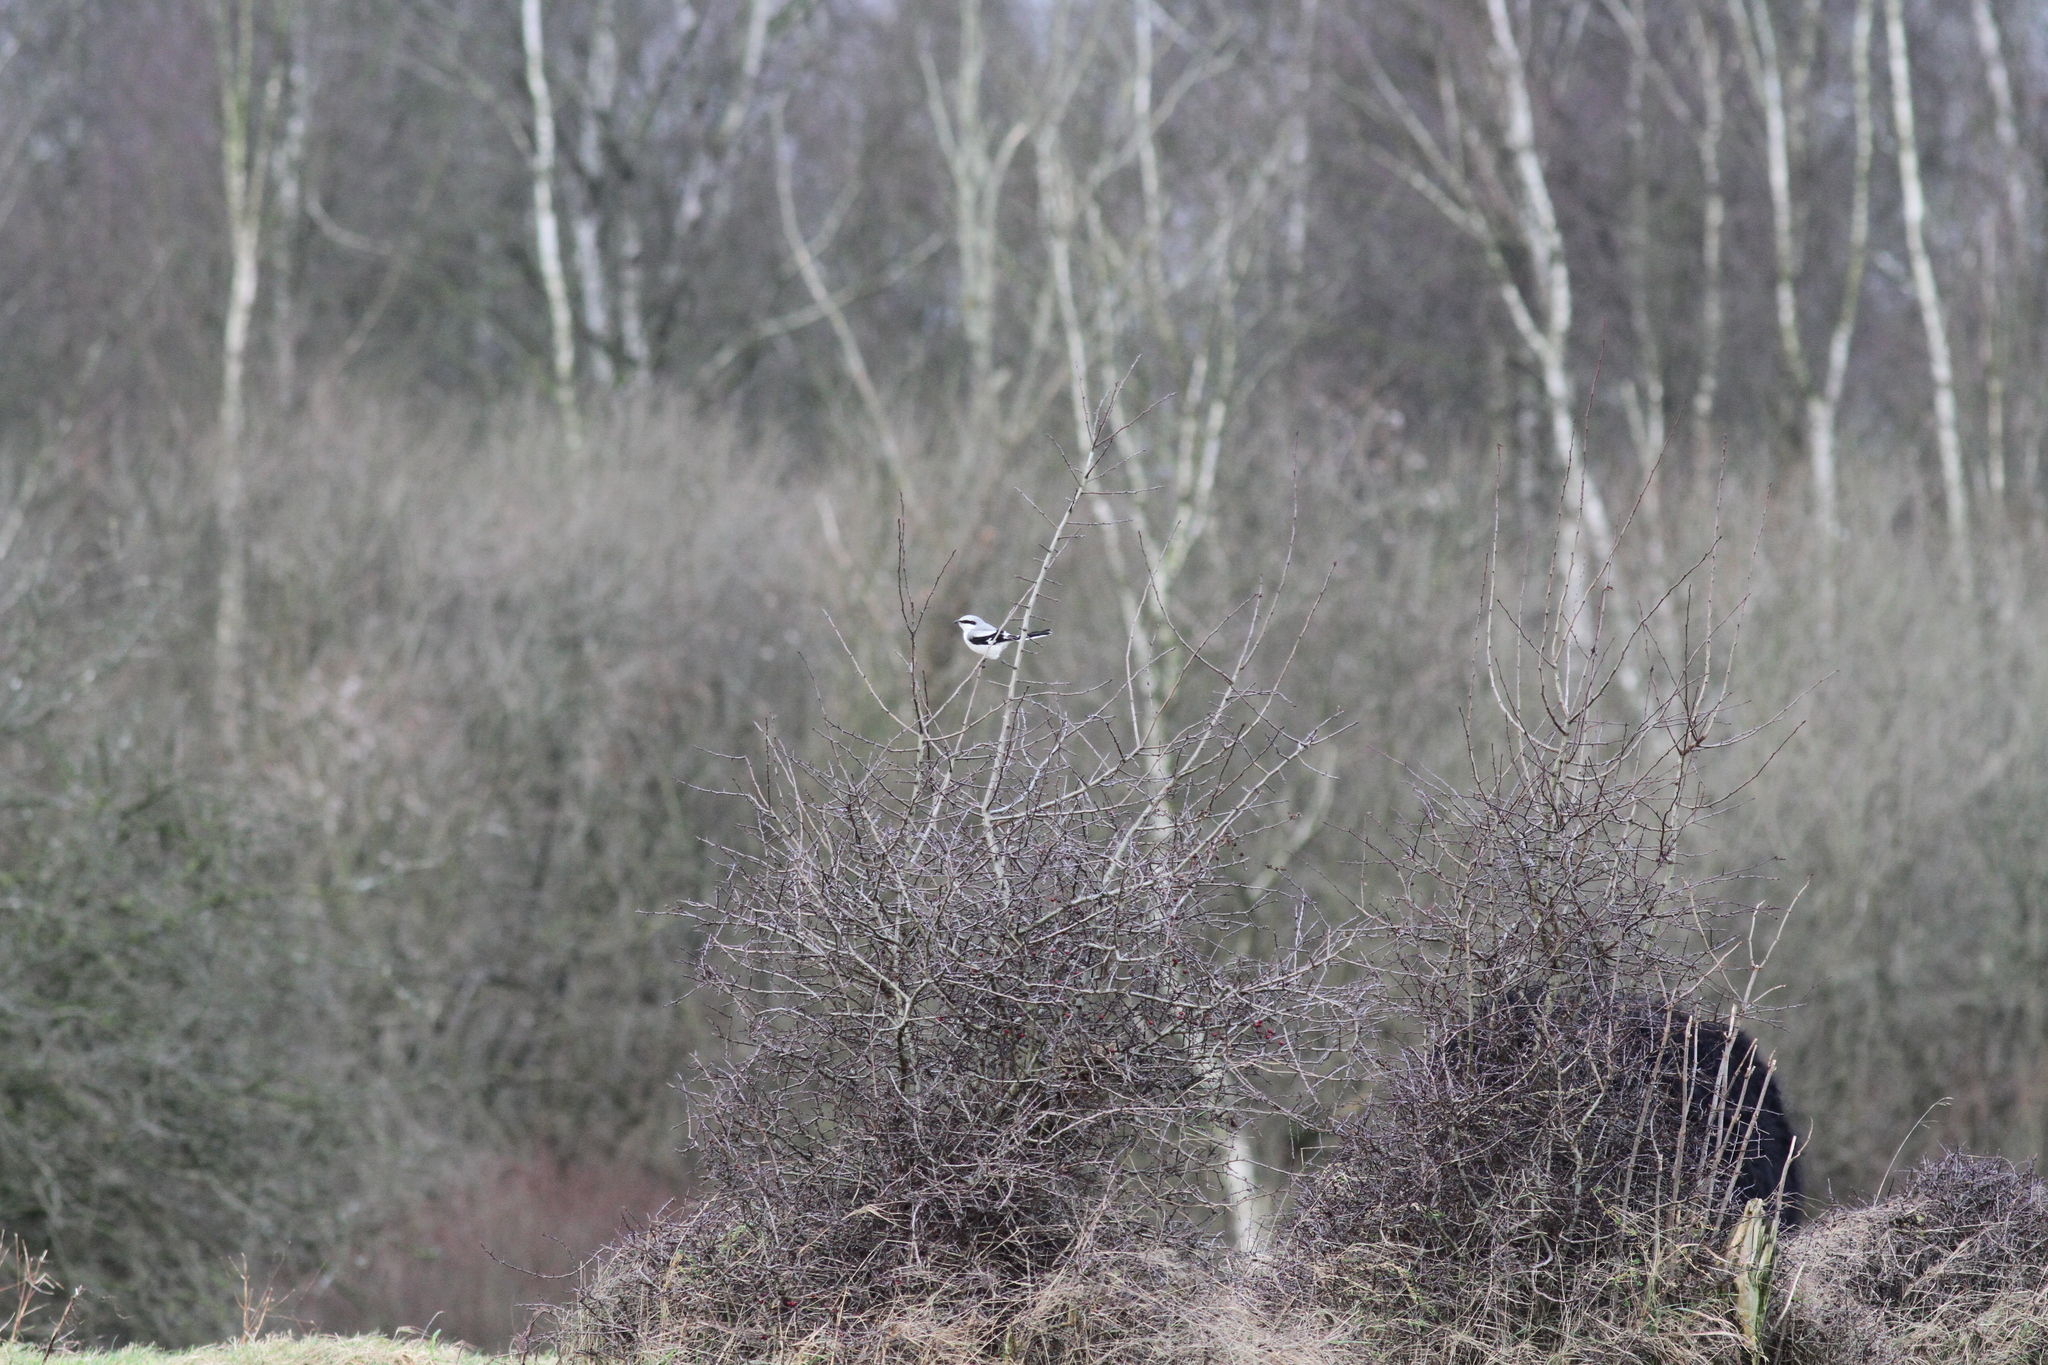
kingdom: Animalia
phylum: Chordata
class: Aves
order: Passeriformes
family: Laniidae
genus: Lanius
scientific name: Lanius excubitor
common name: Great grey shrike
